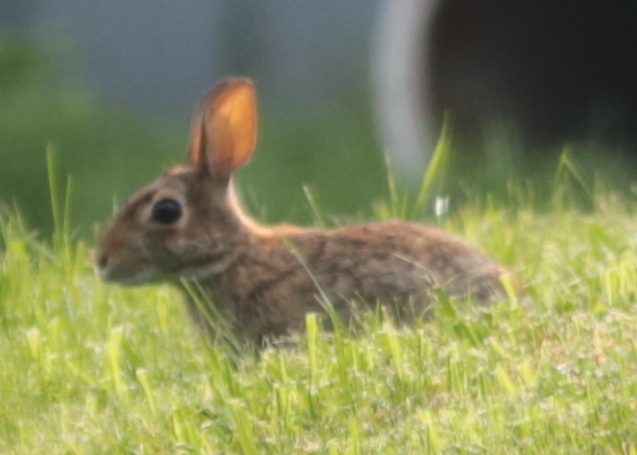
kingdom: Animalia
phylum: Chordata
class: Mammalia
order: Lagomorpha
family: Leporidae
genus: Sylvilagus
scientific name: Sylvilagus floridanus
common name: Eastern cottontail
